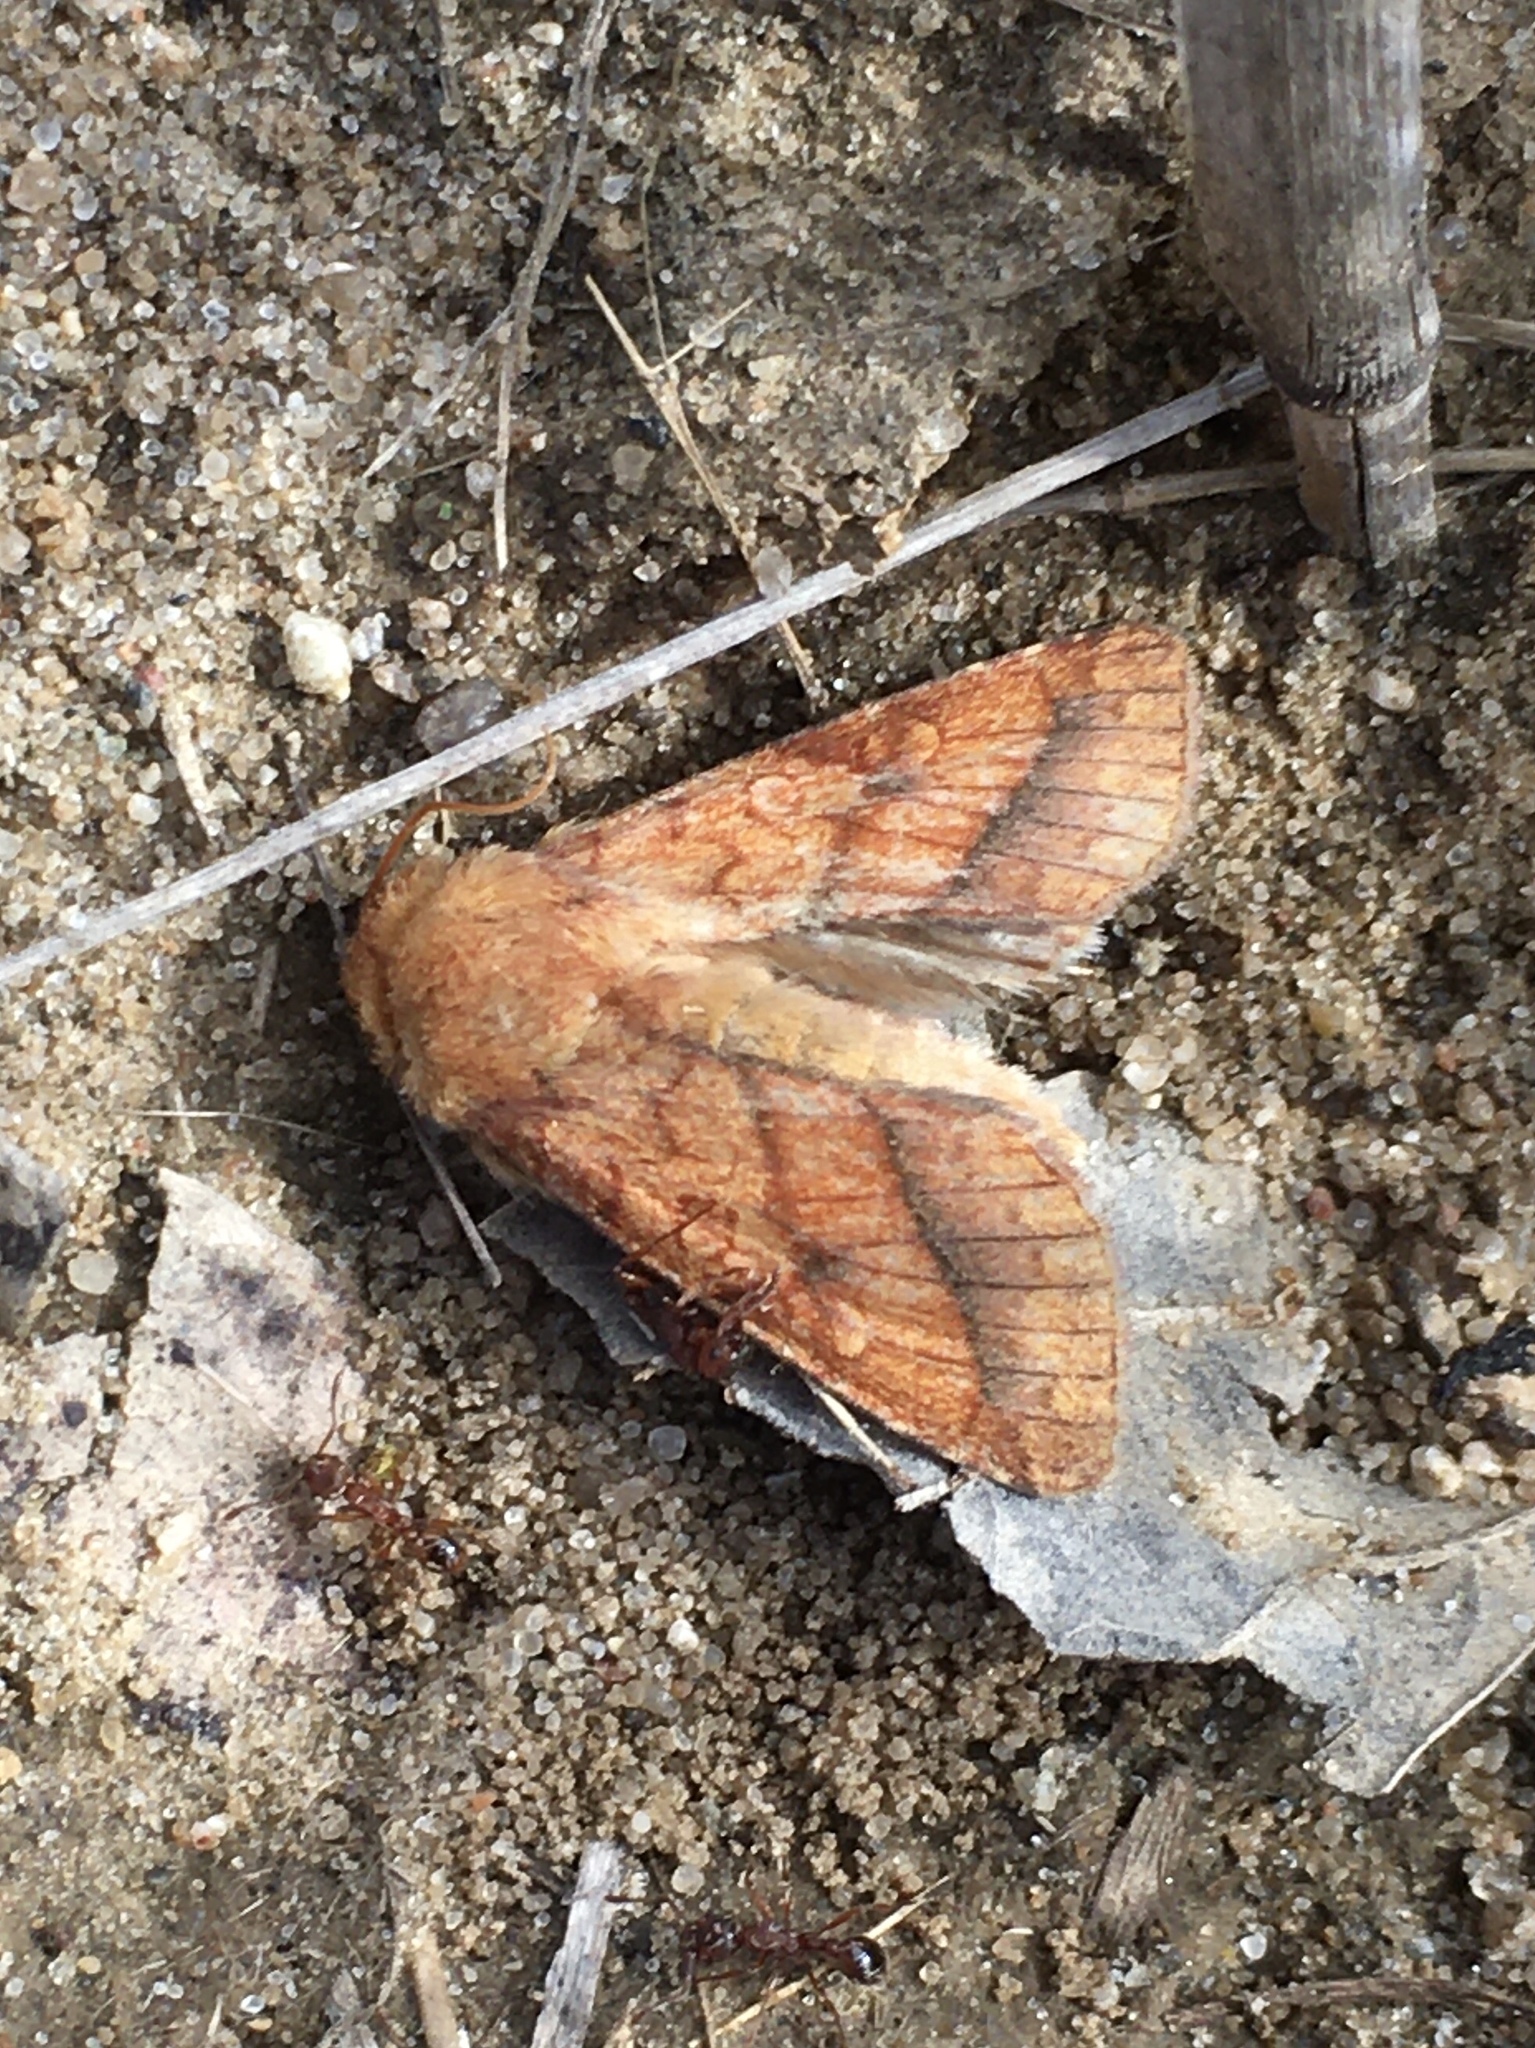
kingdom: Animalia
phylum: Arthropoda
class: Insecta
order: Lepidoptera
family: Noctuidae
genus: Pyrrhia
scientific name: Pyrrhia cilisca
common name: Bordered sallow moth
